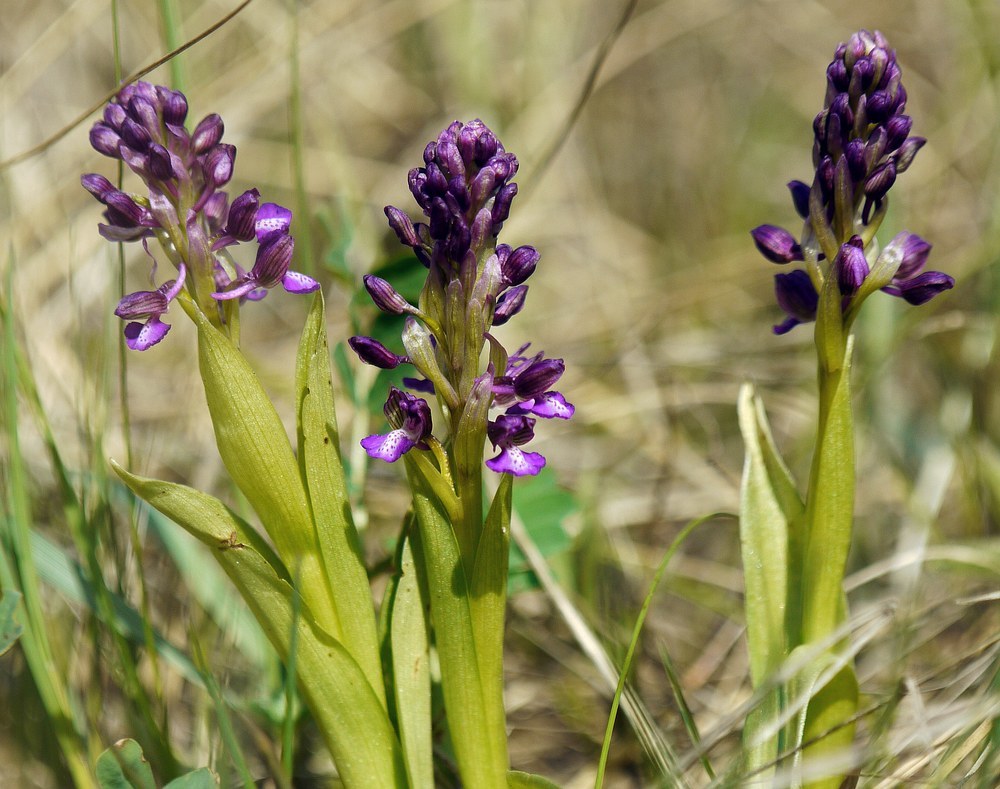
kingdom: Plantae
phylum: Tracheophyta
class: Liliopsida
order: Asparagales
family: Orchidaceae
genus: Anacamptis
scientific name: Anacamptis morio
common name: Green-winged orchid
